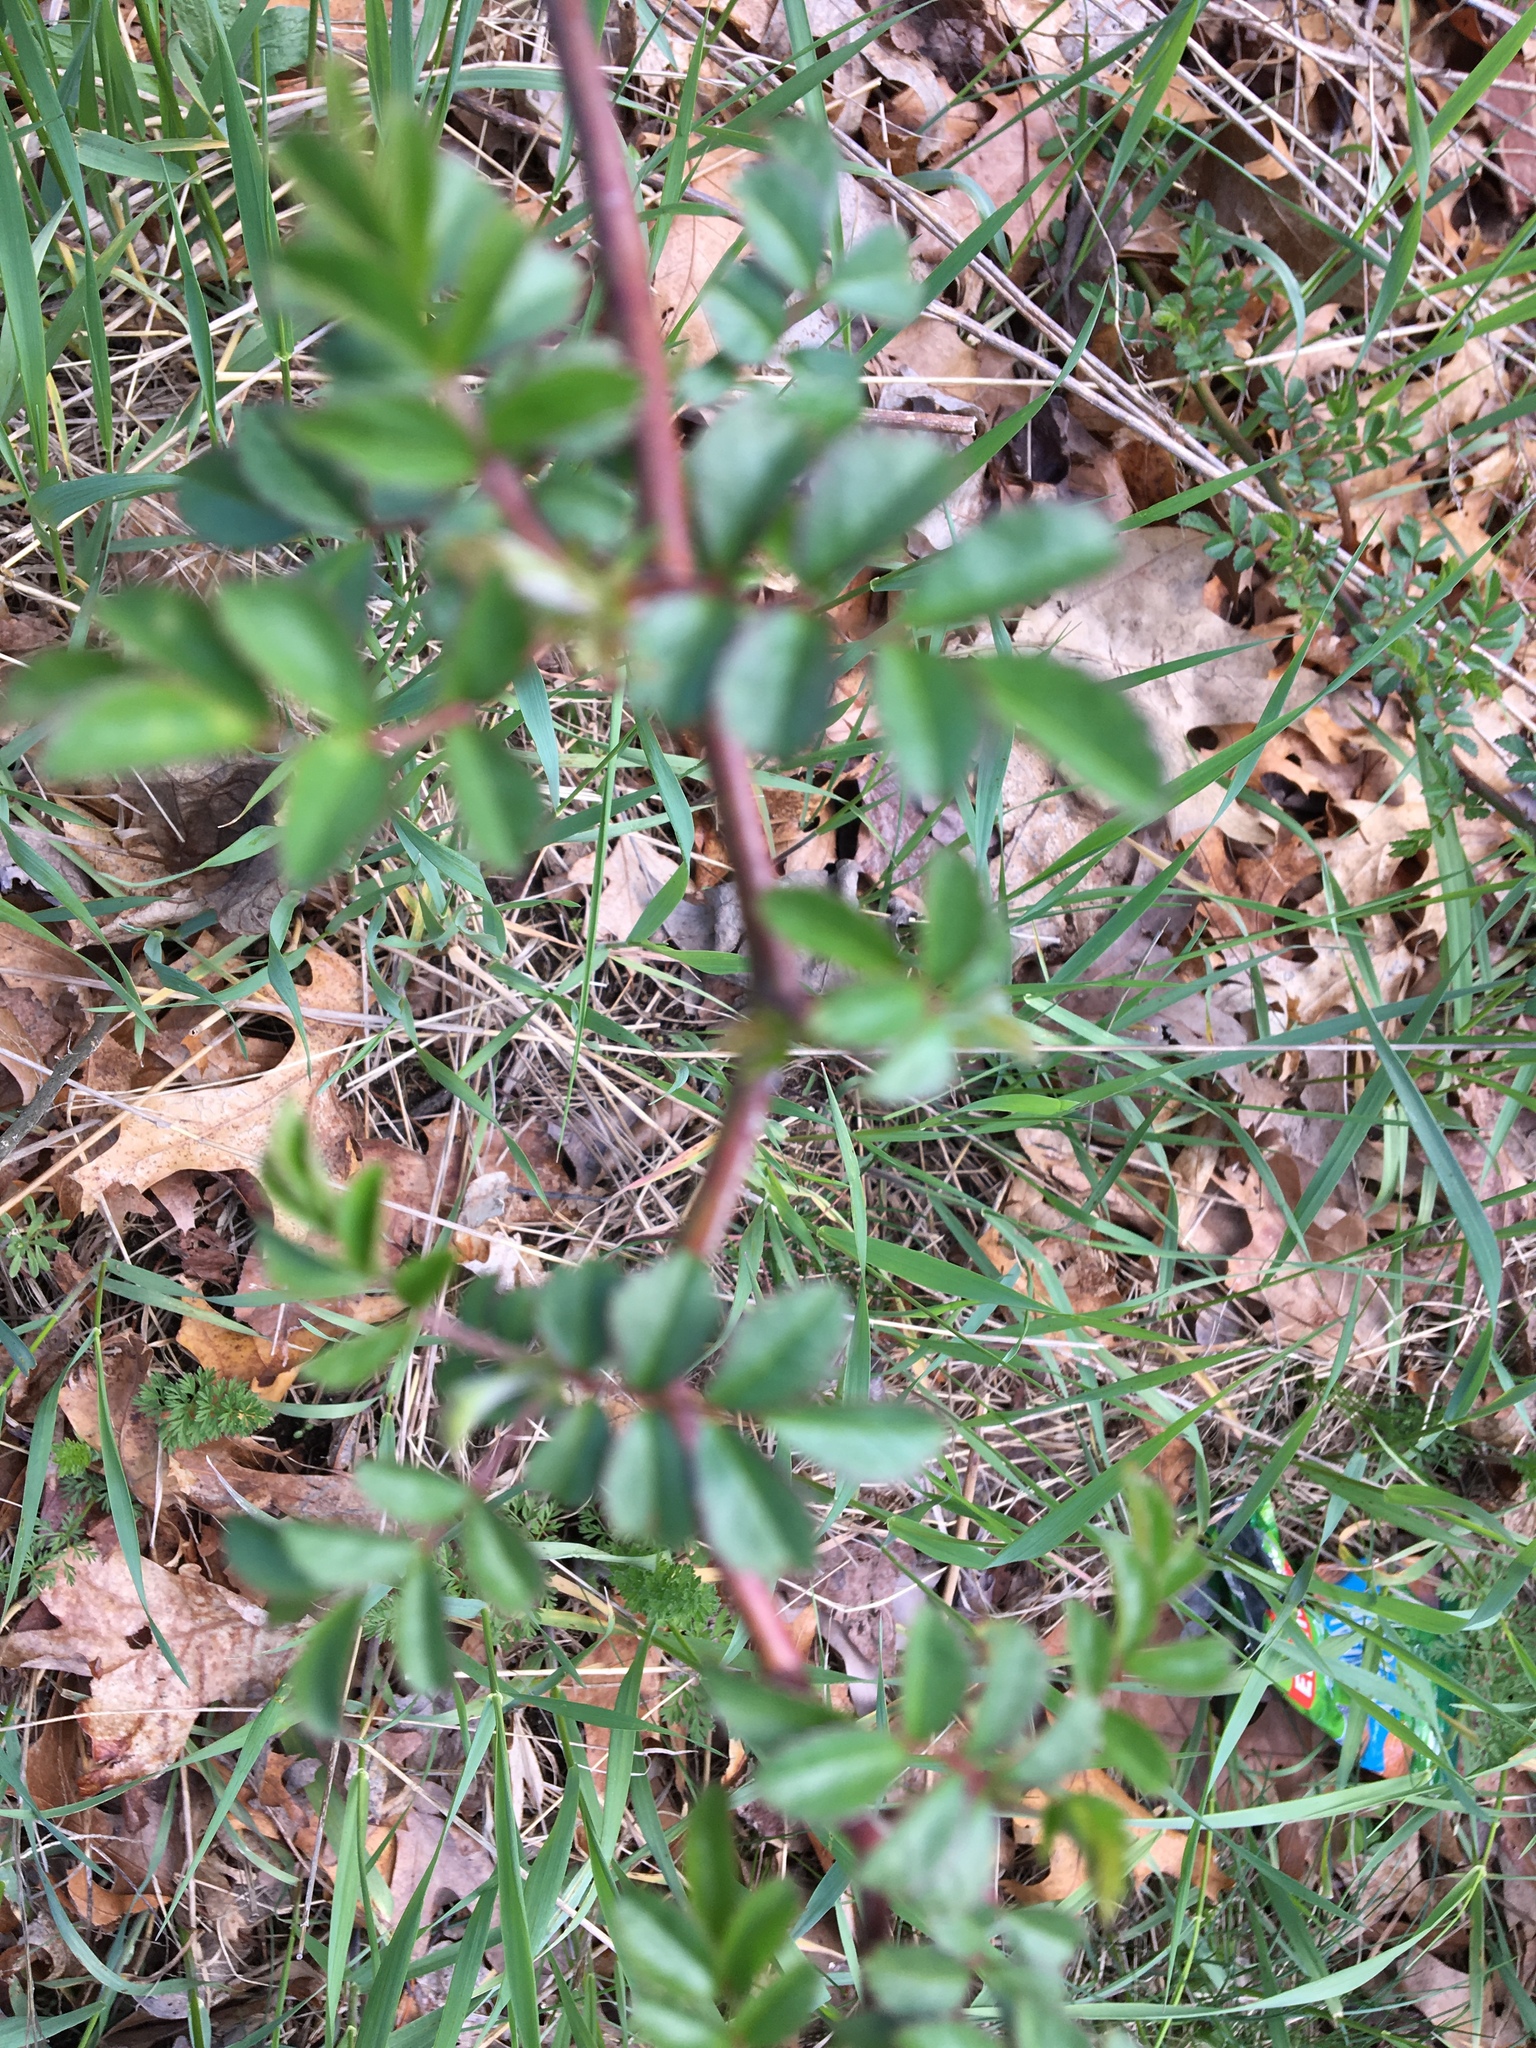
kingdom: Plantae
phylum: Tracheophyta
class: Magnoliopsida
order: Rosales
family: Rosaceae
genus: Rosa
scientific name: Rosa multiflora
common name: Multiflora rose
